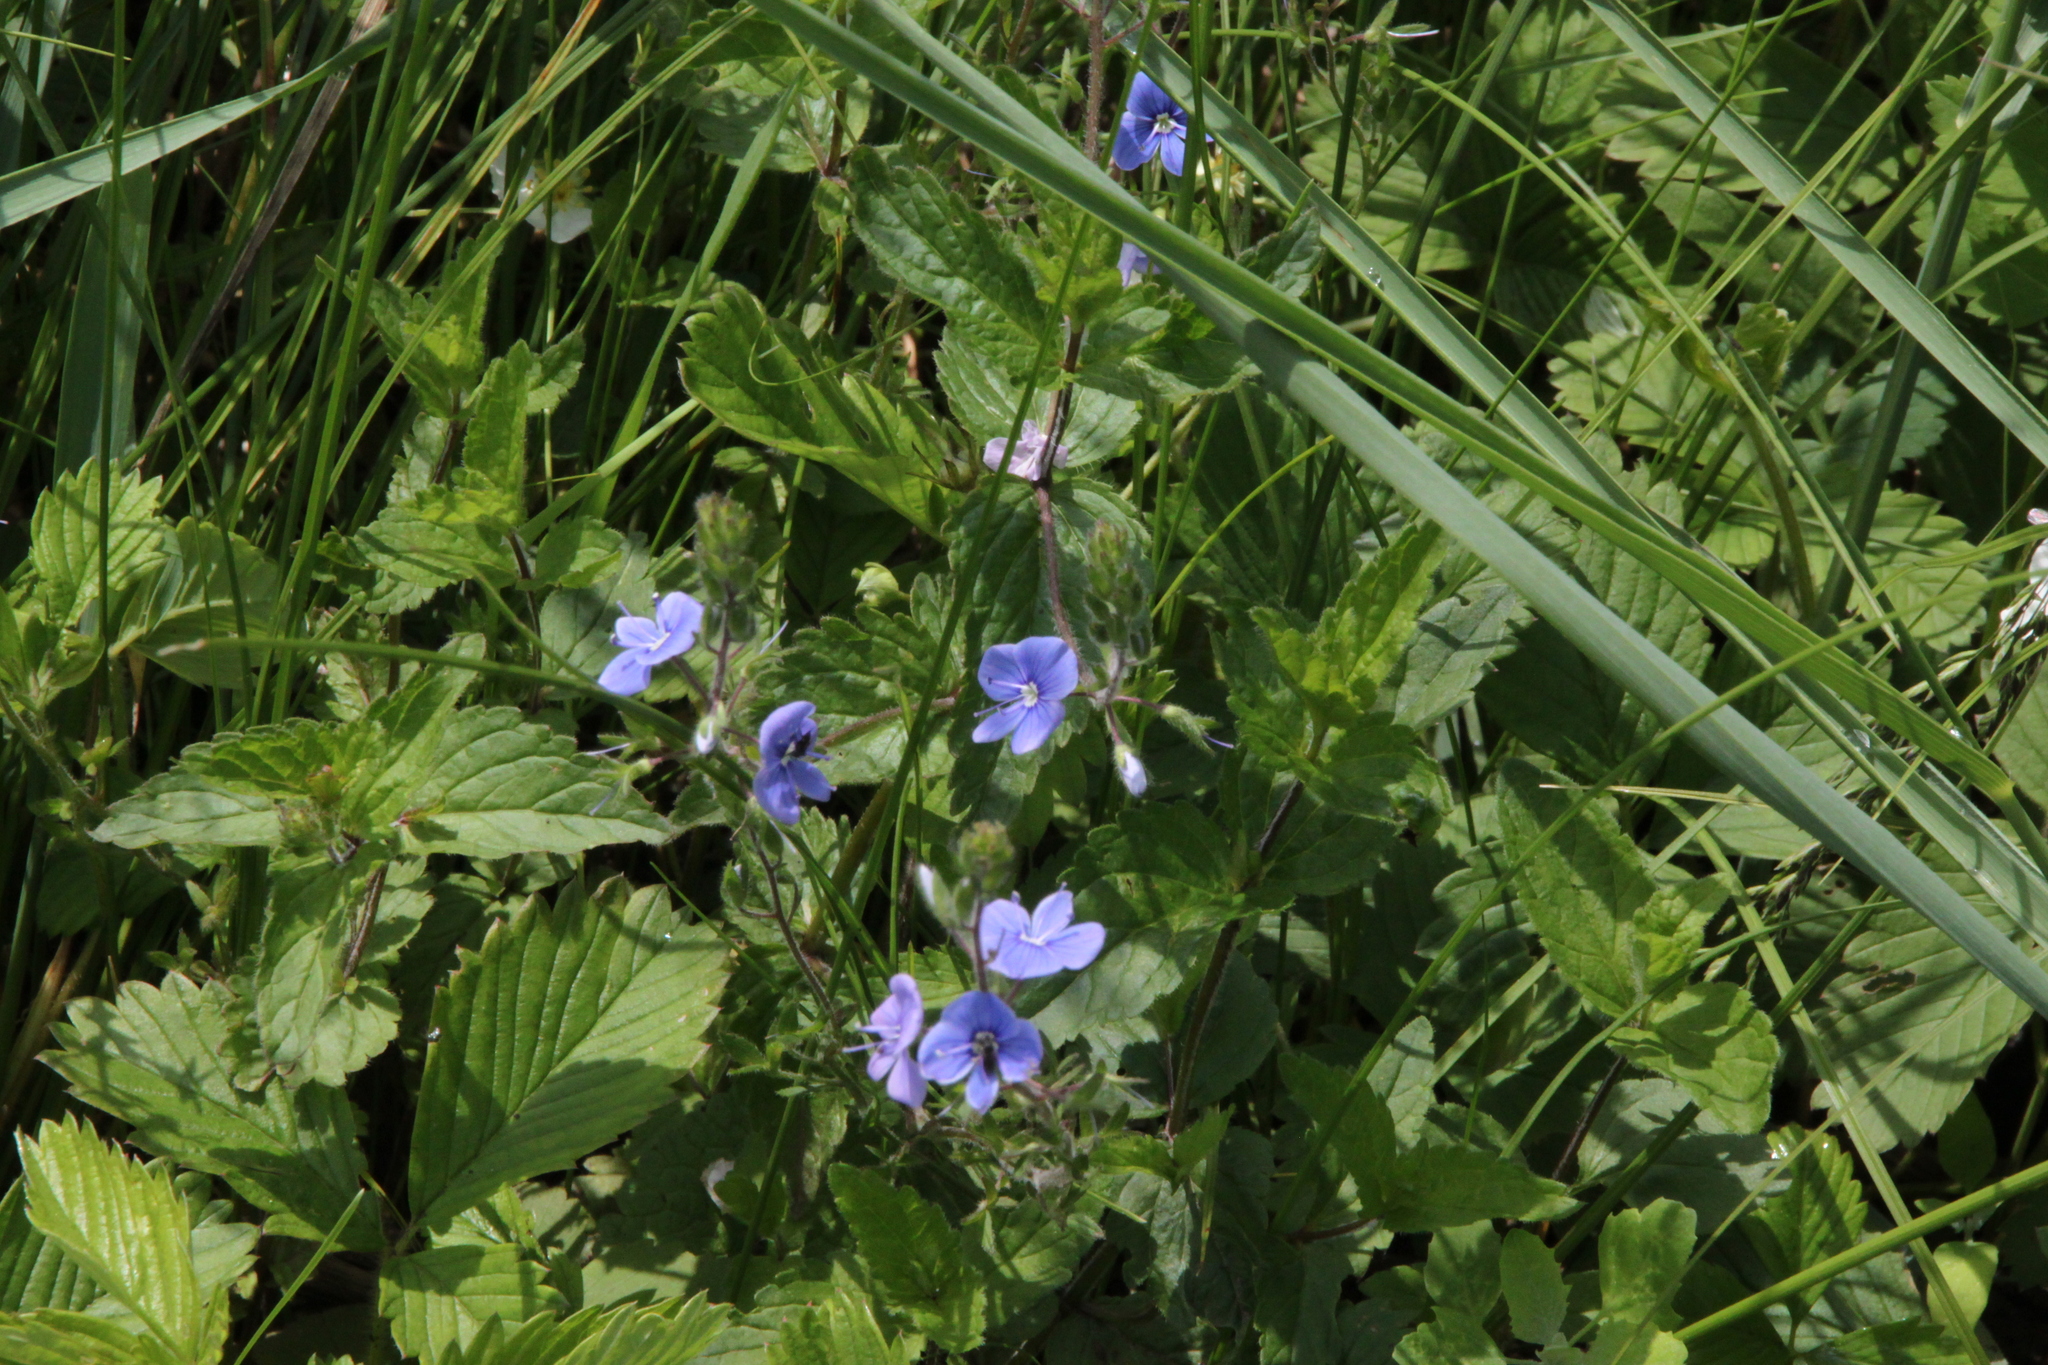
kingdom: Plantae
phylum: Tracheophyta
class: Magnoliopsida
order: Lamiales
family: Plantaginaceae
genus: Veronica
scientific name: Veronica chamaedrys
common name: Germander speedwell
